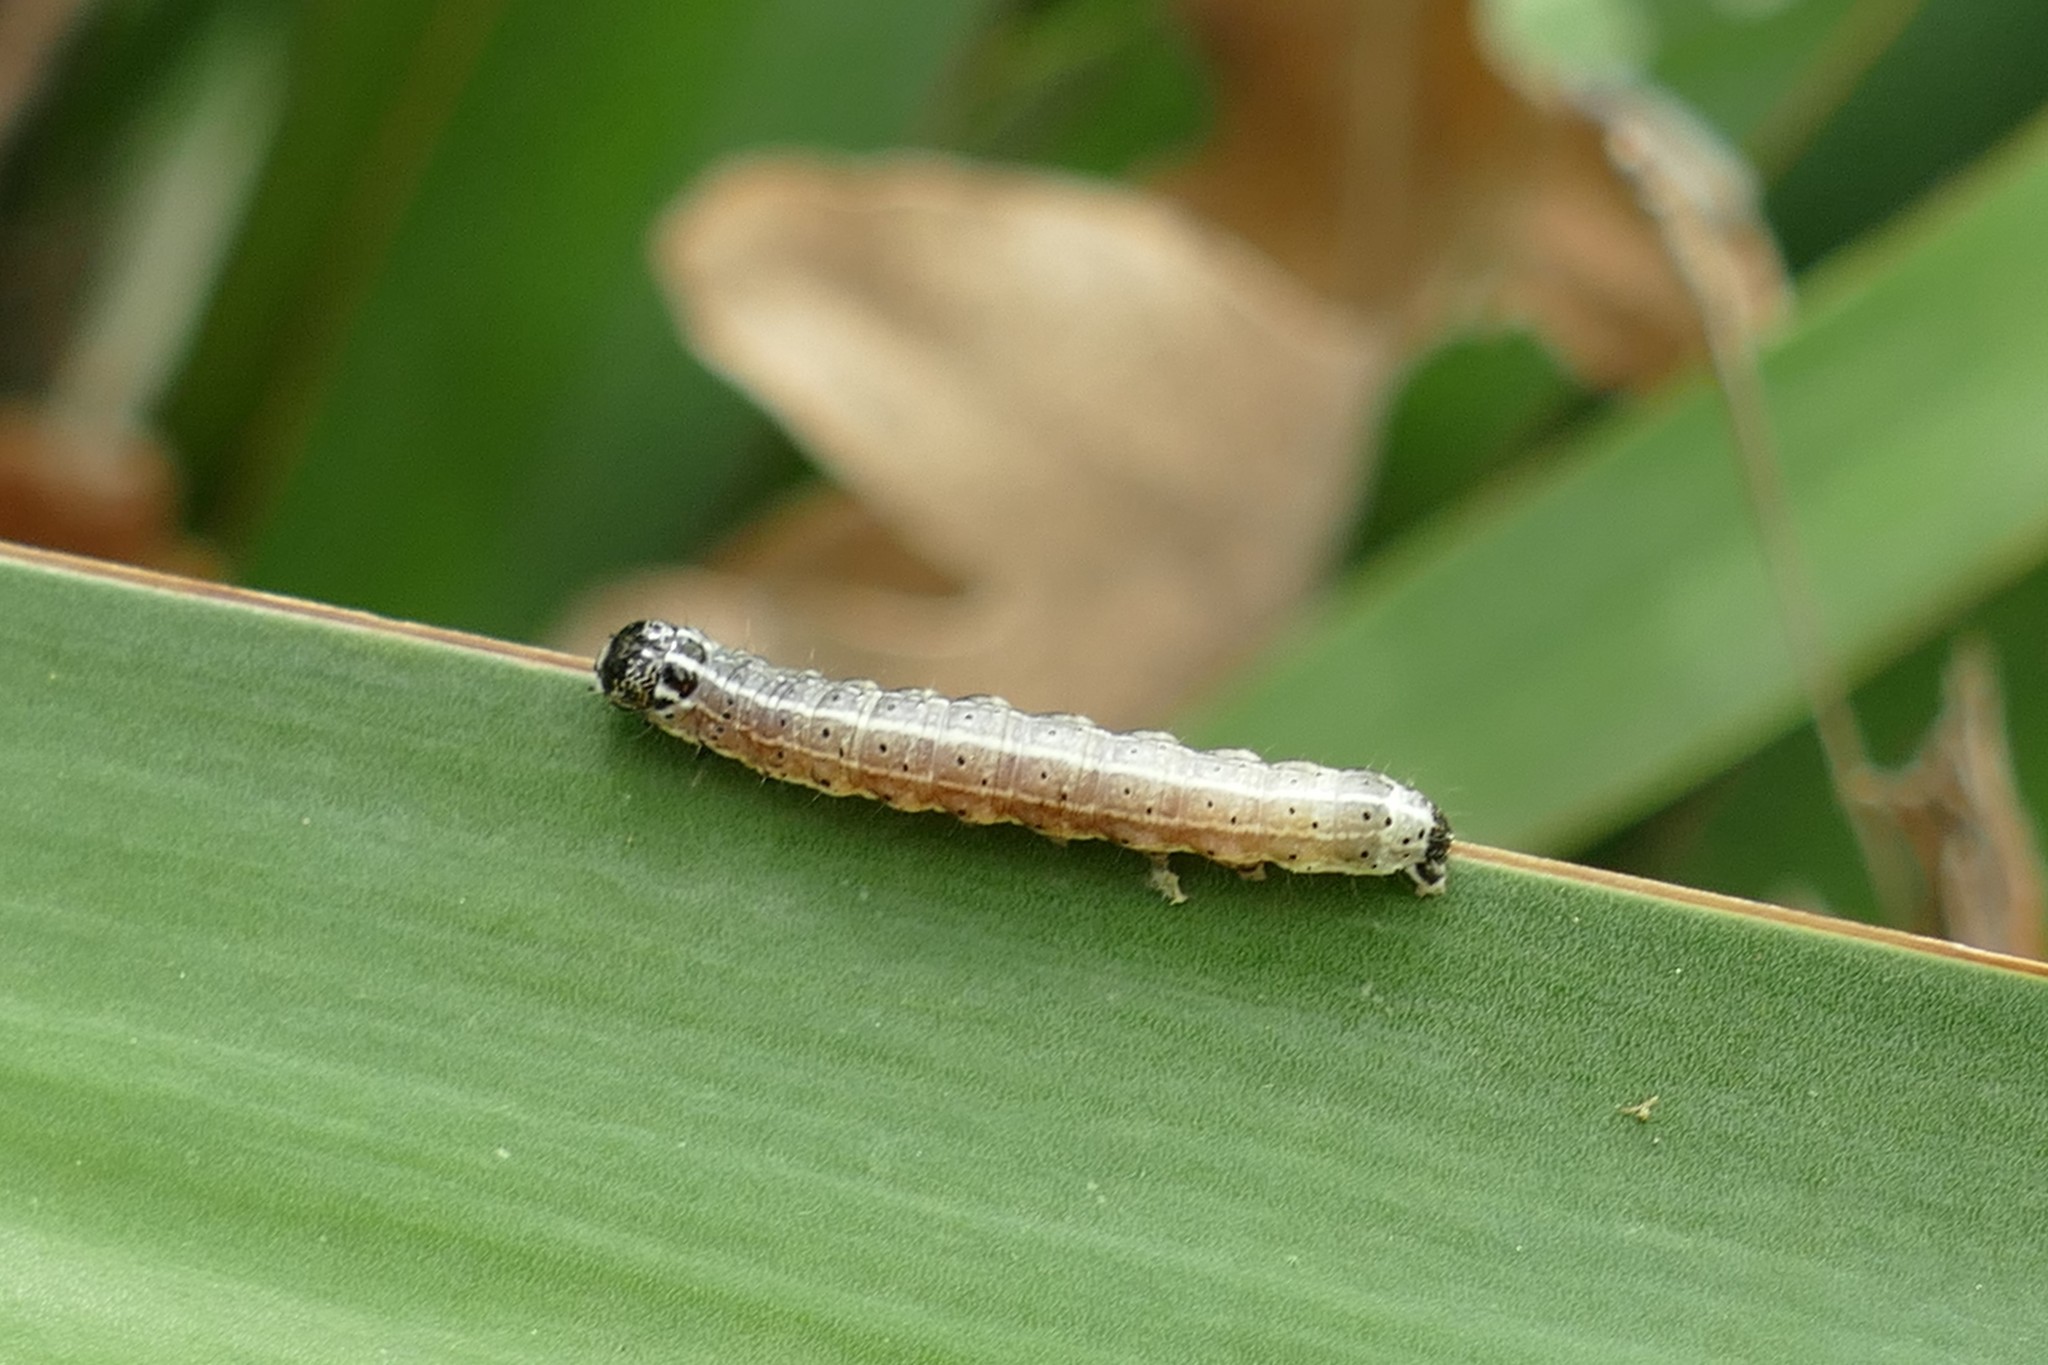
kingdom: Animalia
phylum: Arthropoda
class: Insecta
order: Lepidoptera
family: Noctuidae
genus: Orthosia
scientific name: Orthosia cruda
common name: Small quaker
